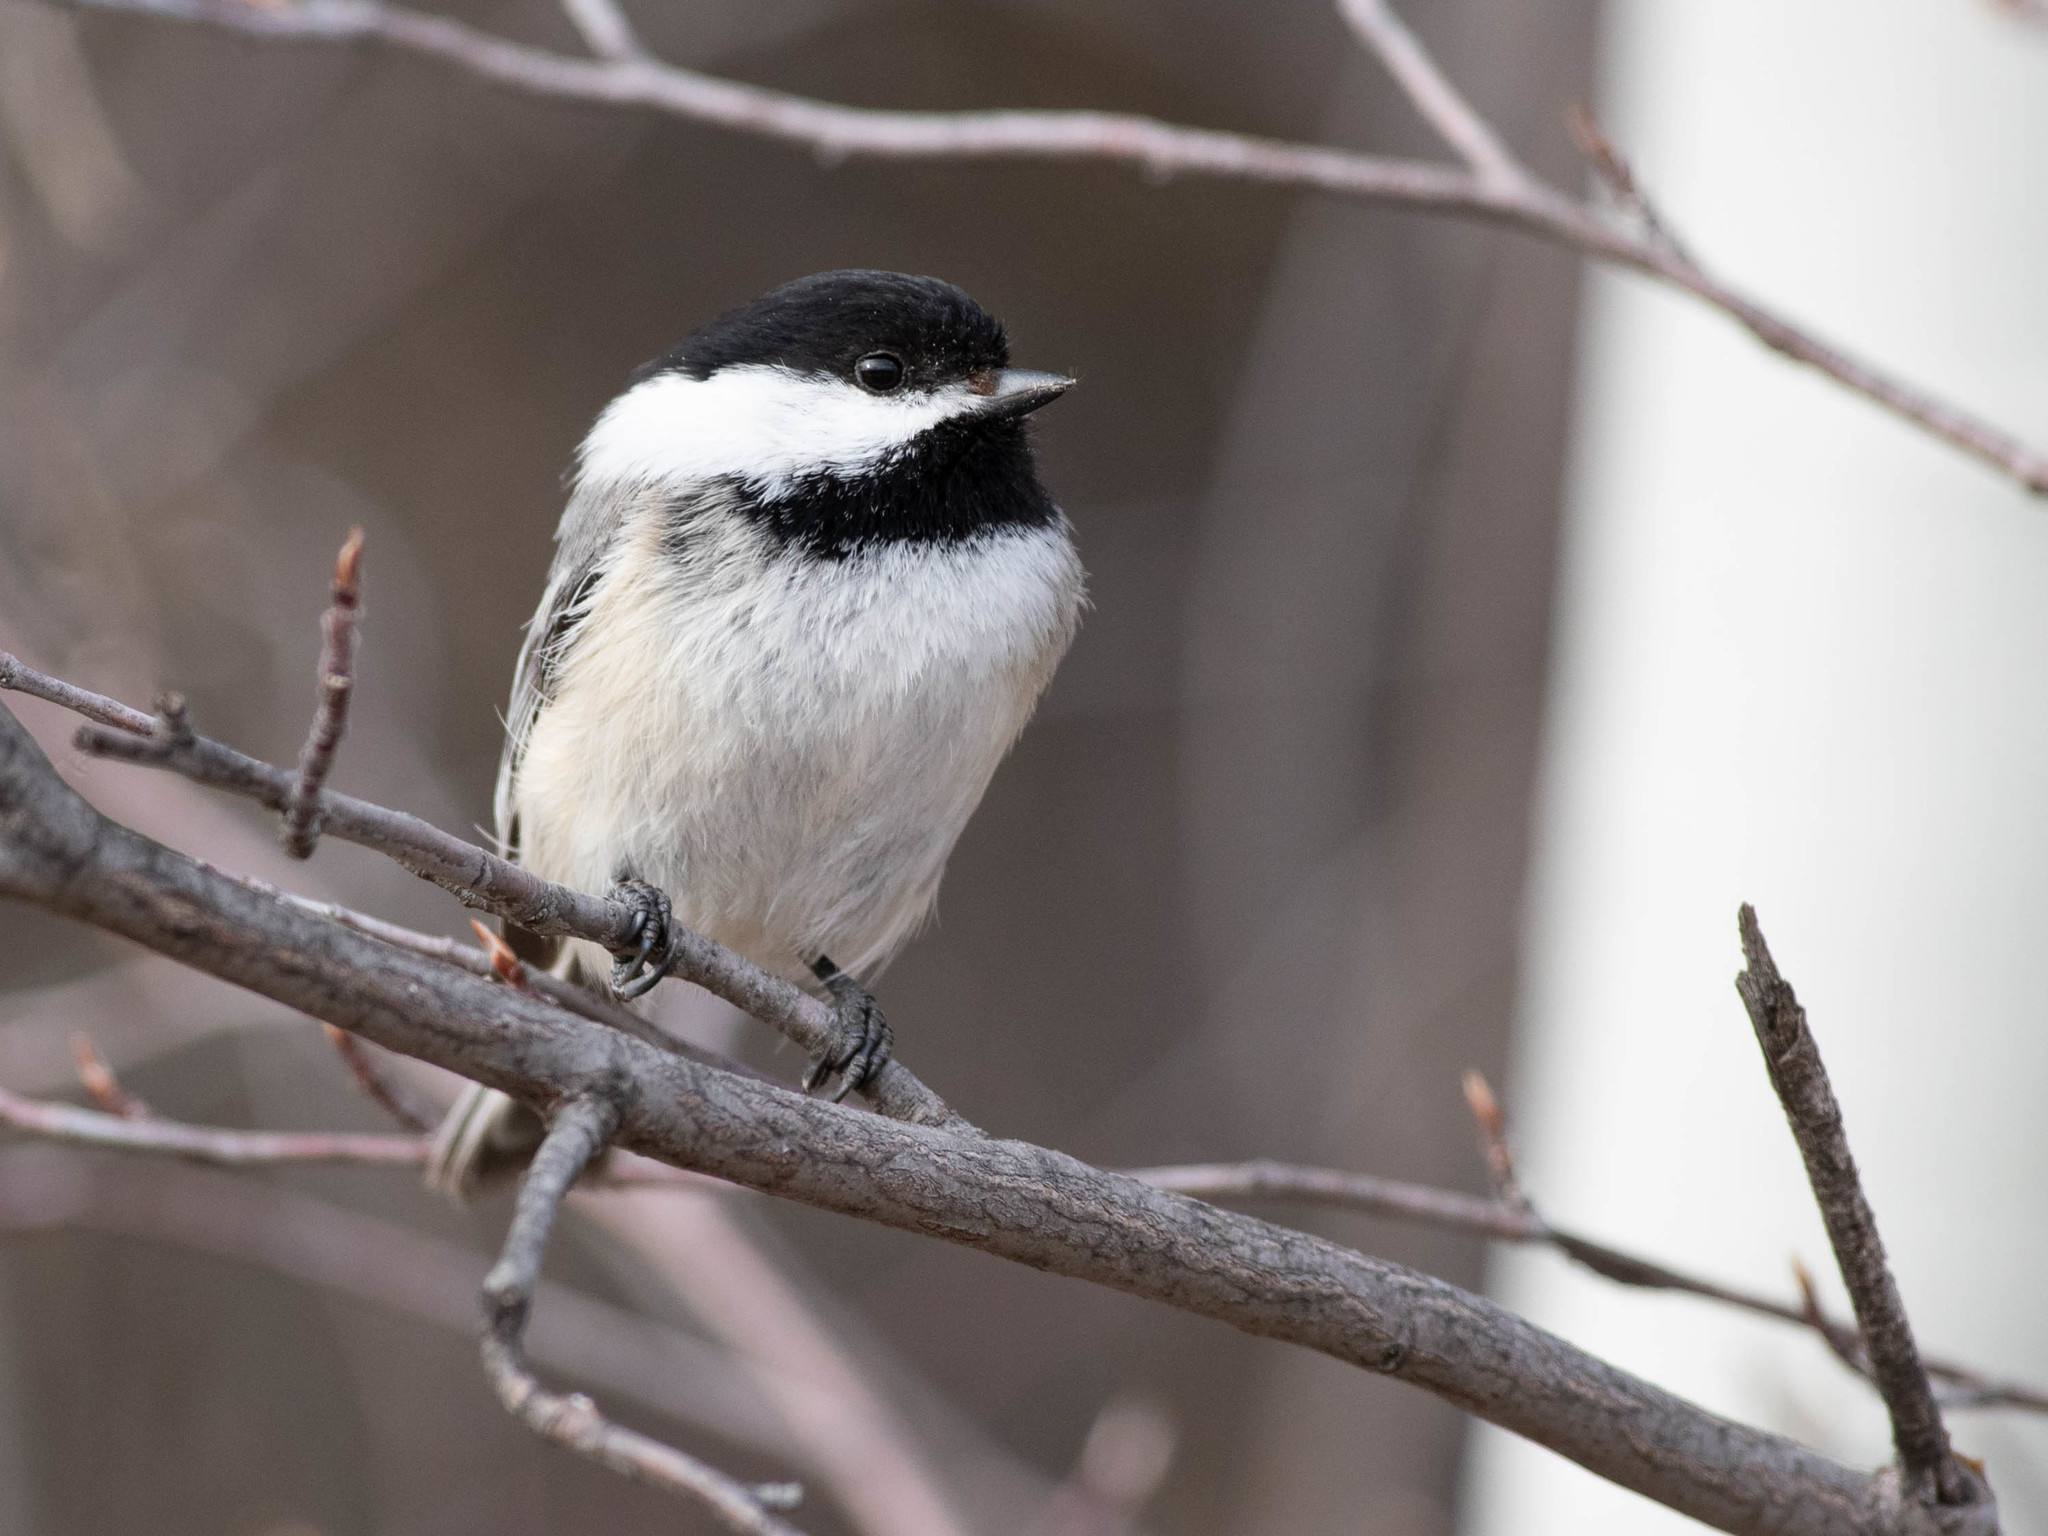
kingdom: Animalia
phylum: Chordata
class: Aves
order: Passeriformes
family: Paridae
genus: Poecile
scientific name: Poecile atricapillus
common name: Black-capped chickadee
